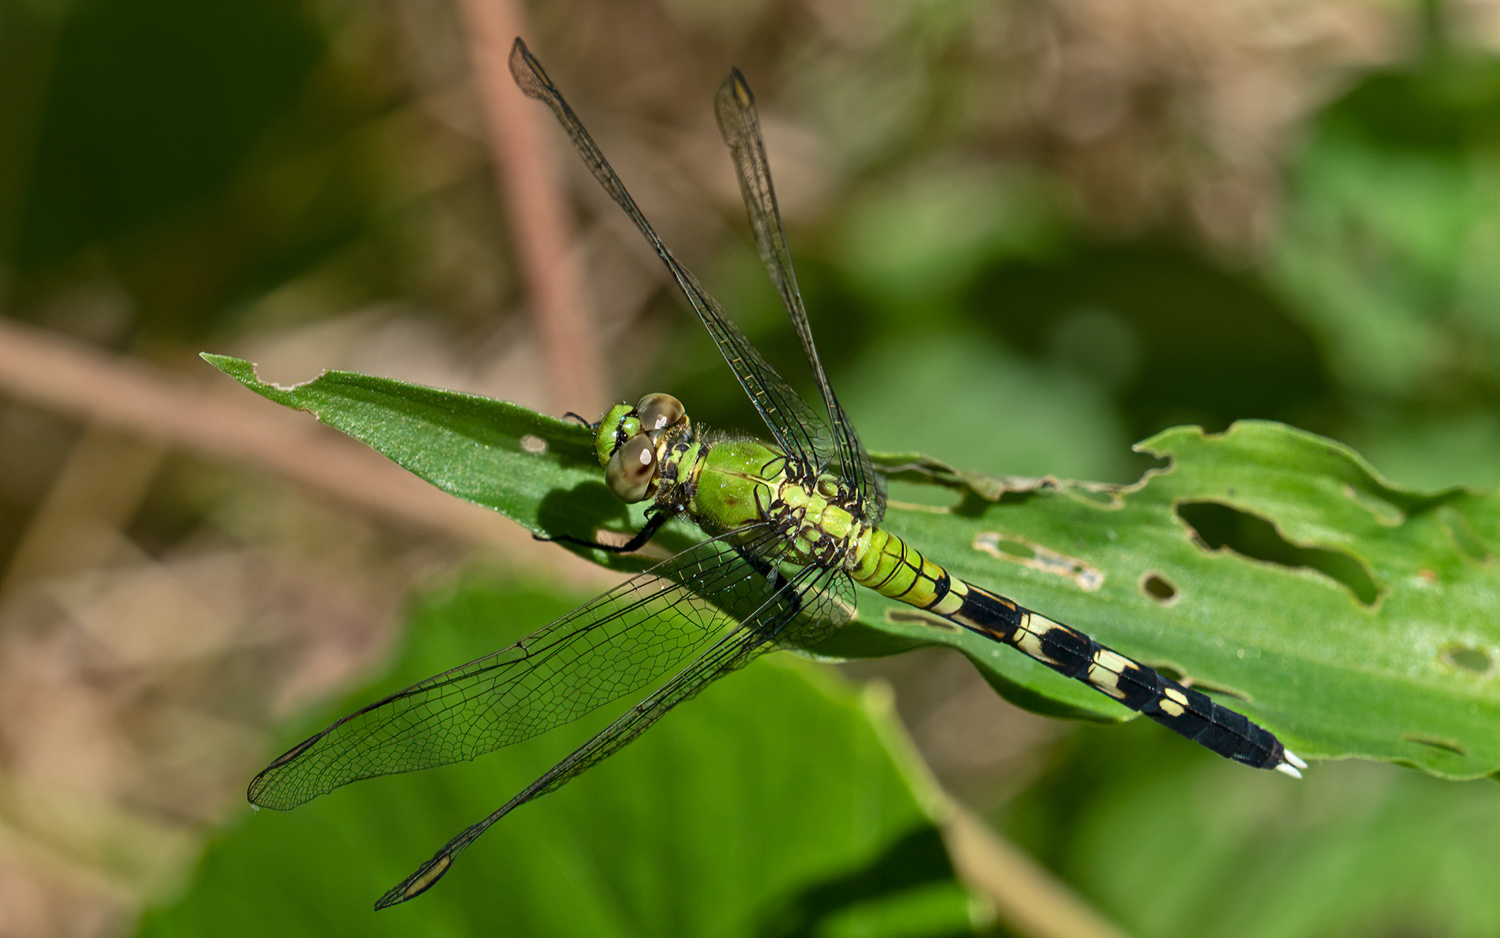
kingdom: Animalia
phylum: Arthropoda
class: Insecta
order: Odonata
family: Libellulidae
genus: Erythemis
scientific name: Erythemis simplicicollis
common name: Eastern pondhawk
